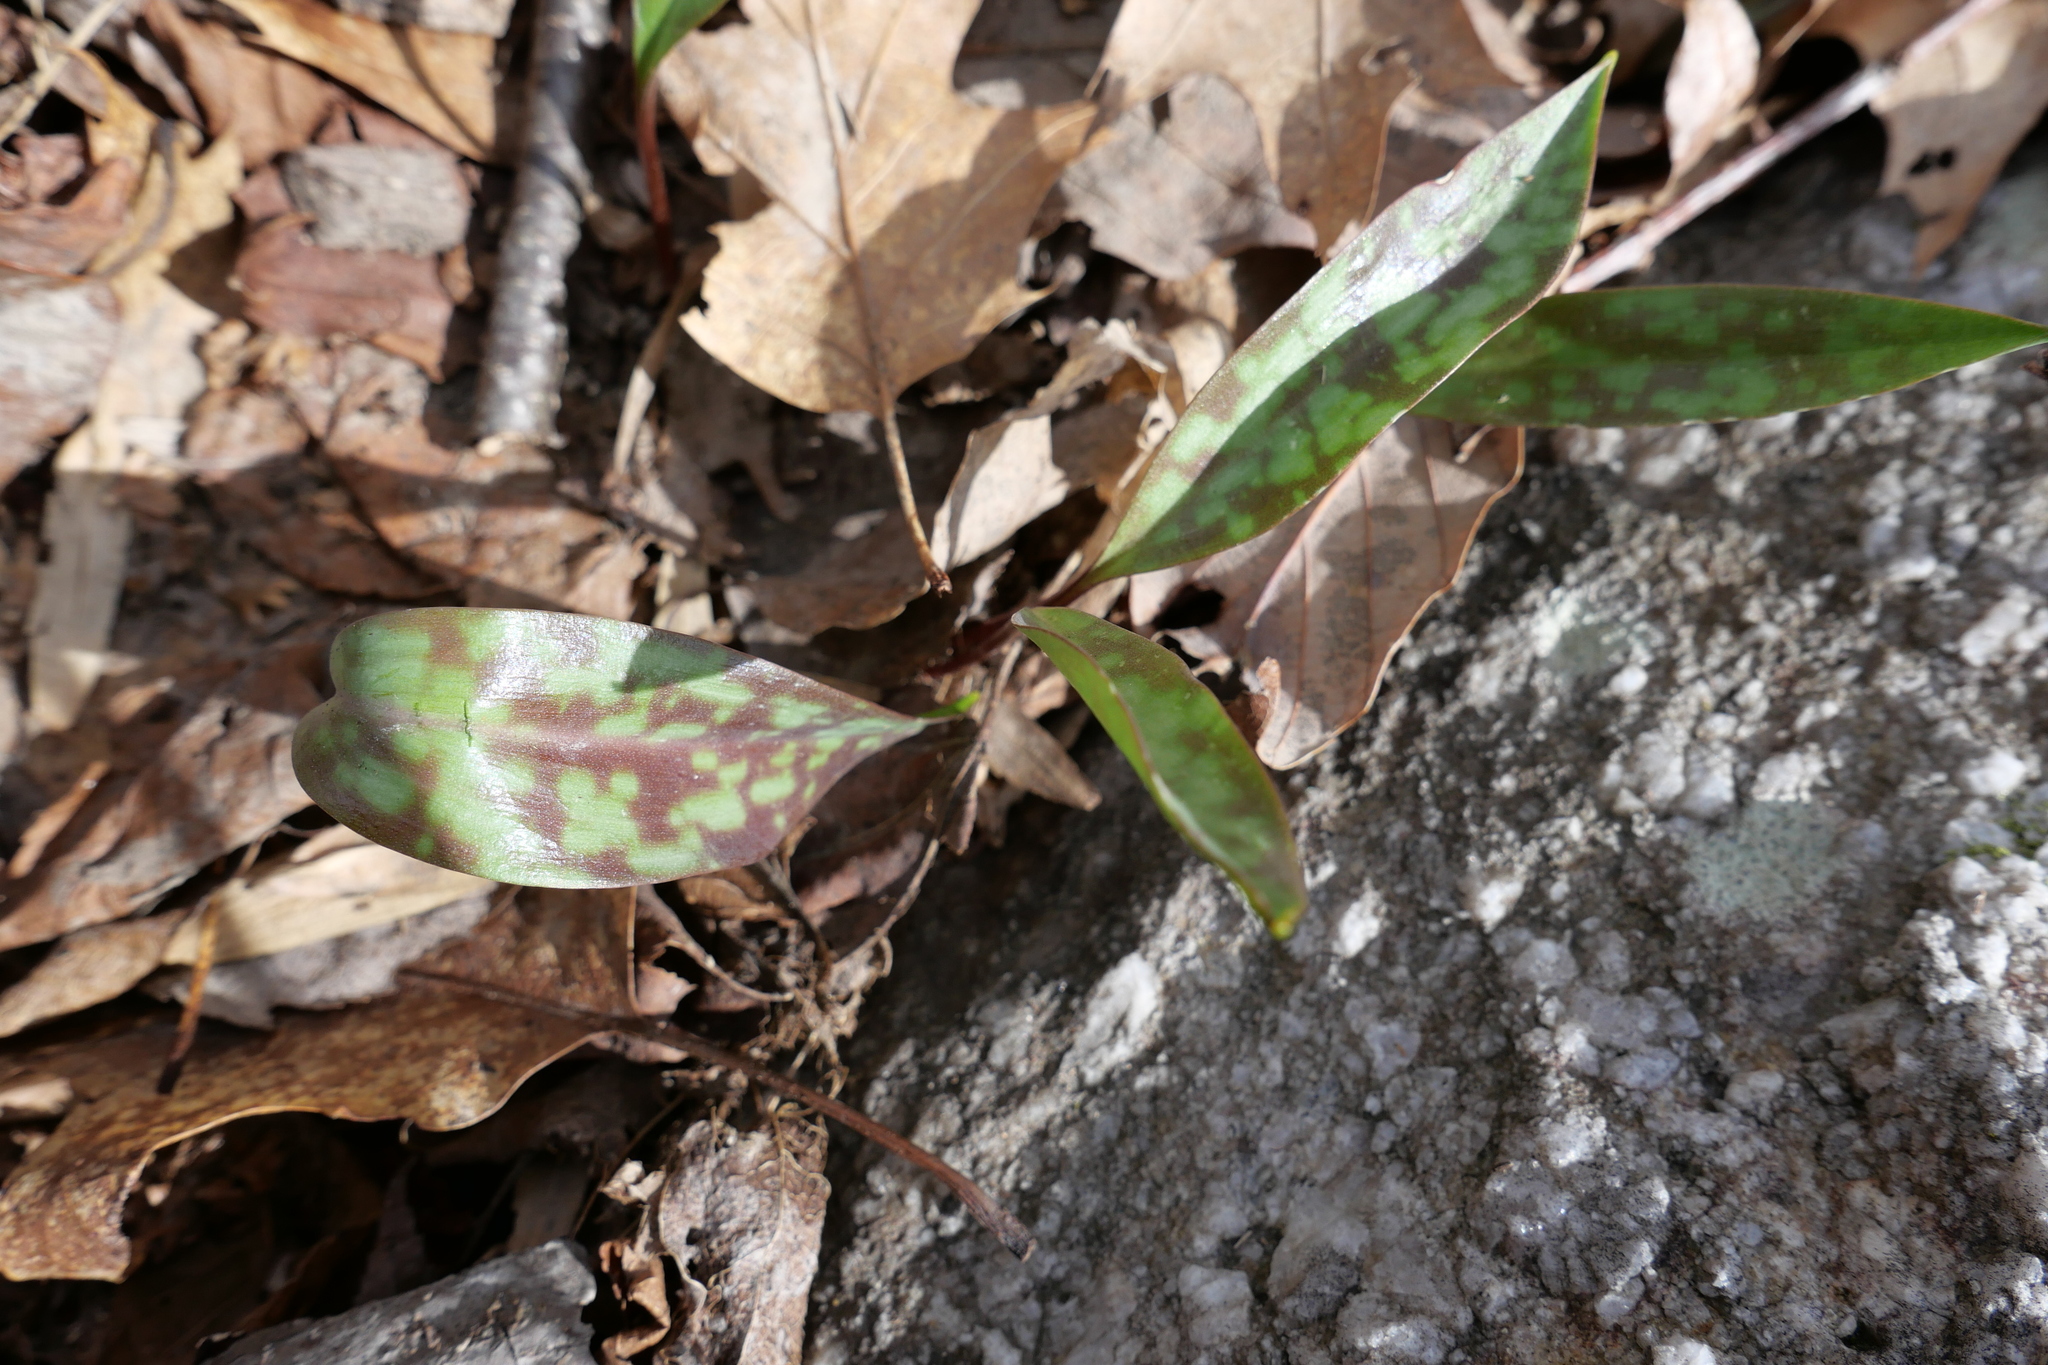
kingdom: Plantae
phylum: Tracheophyta
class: Liliopsida
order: Liliales
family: Liliaceae
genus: Erythronium
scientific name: Erythronium americanum
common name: Yellow adder's-tongue
